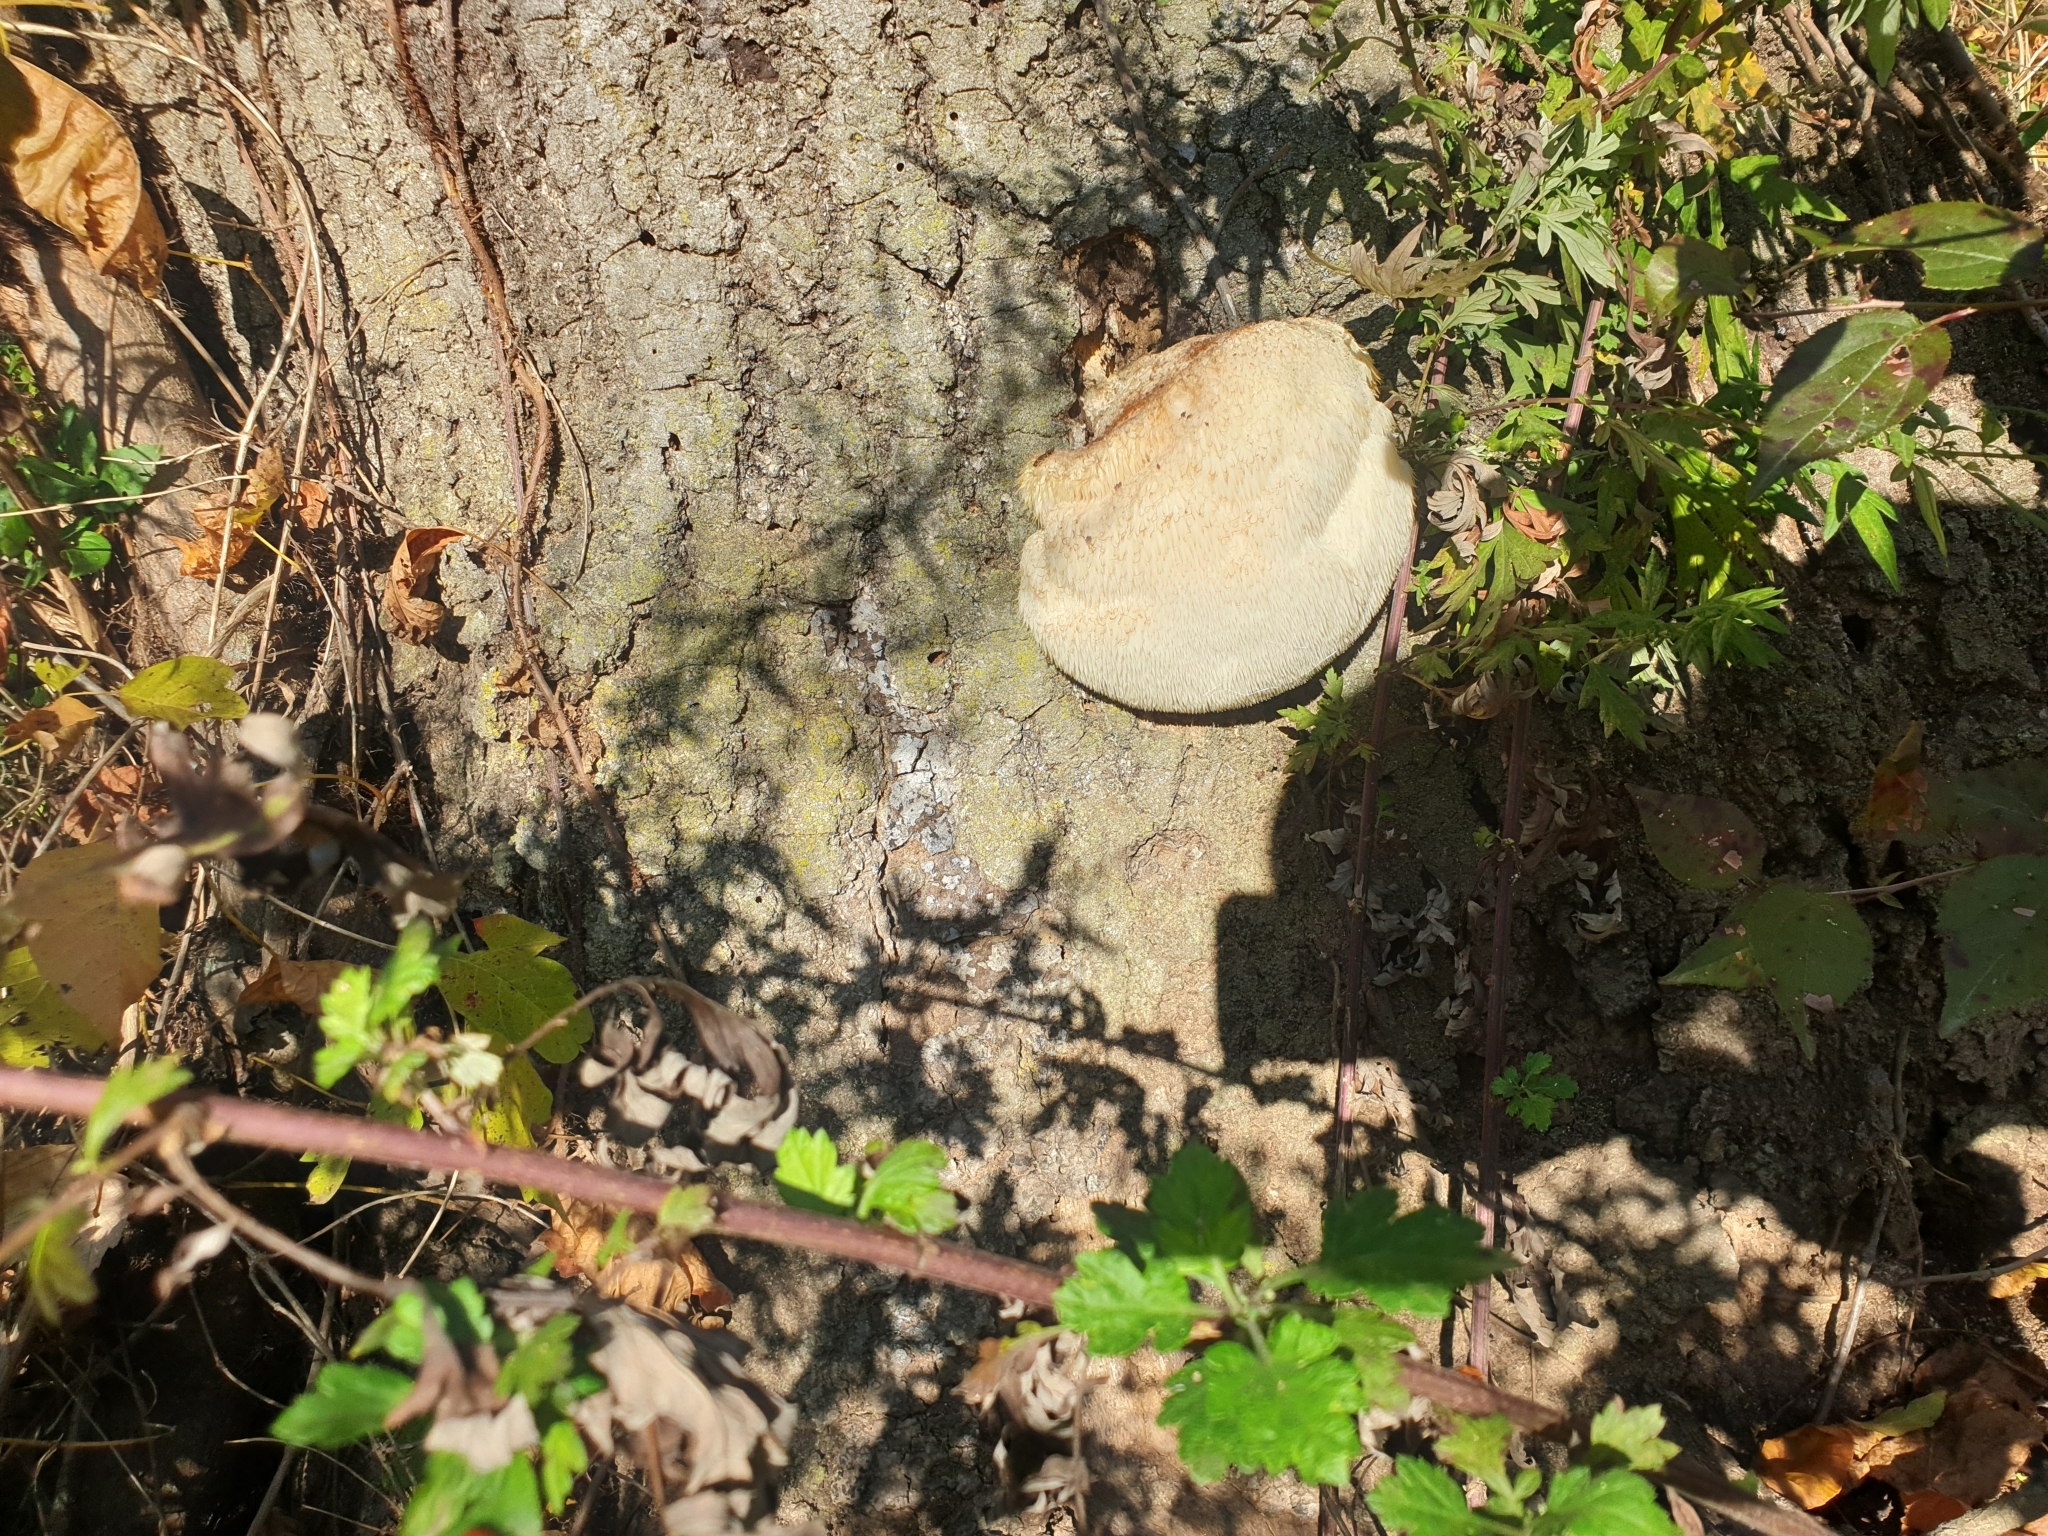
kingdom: Fungi
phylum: Basidiomycota
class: Agaricomycetes
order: Russulales
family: Hericiaceae
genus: Hericium
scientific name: Hericium erinaceus
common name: Bearded tooth
